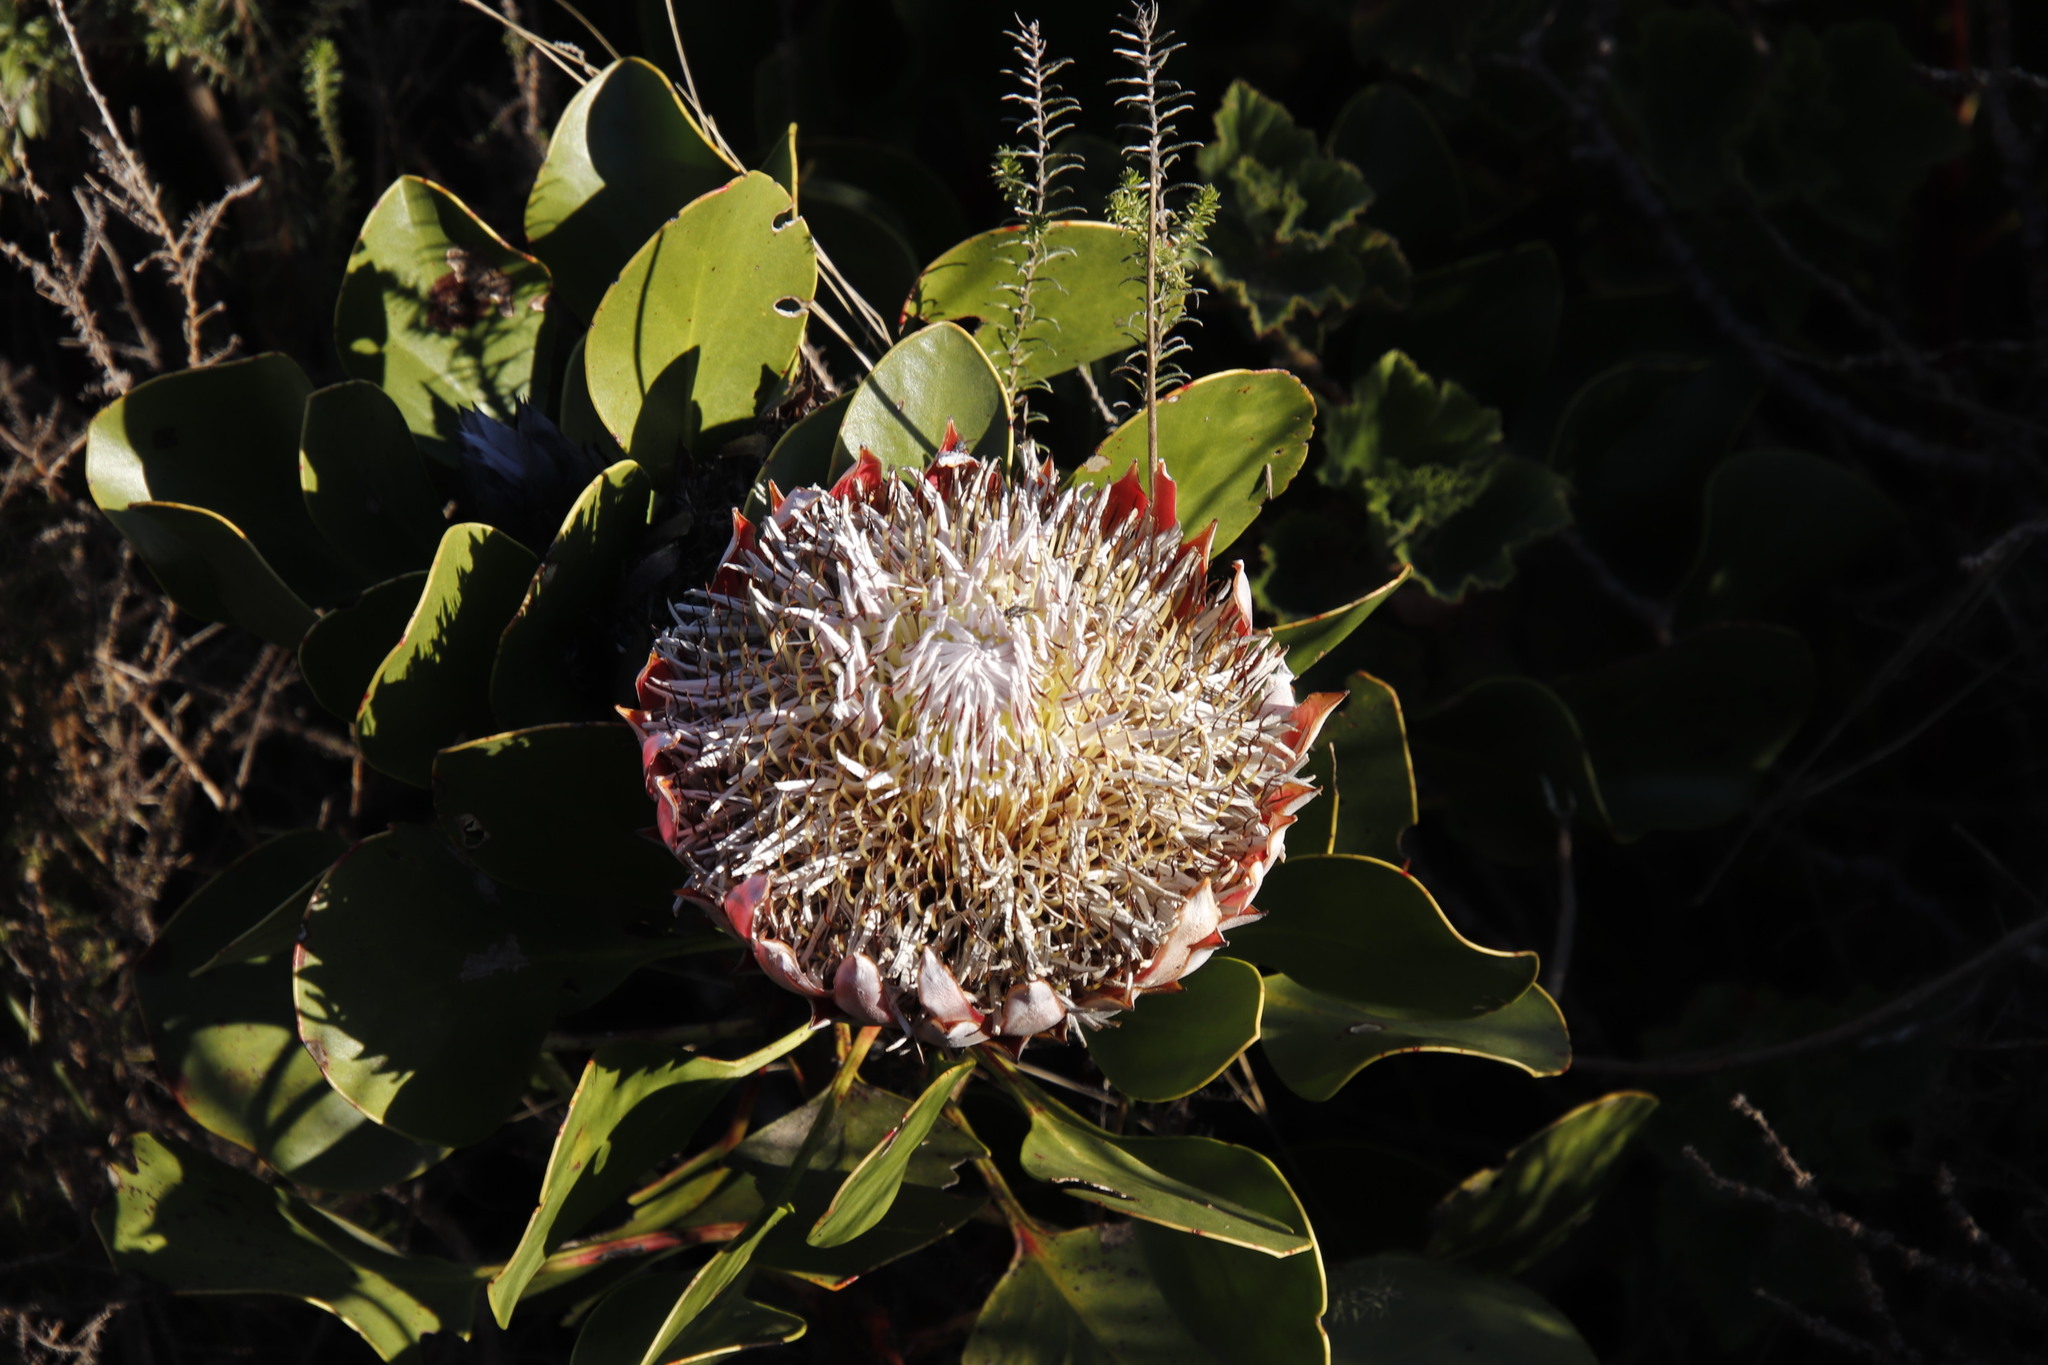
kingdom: Plantae
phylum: Tracheophyta
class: Magnoliopsida
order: Proteales
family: Proteaceae
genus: Protea
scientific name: Protea cynaroides
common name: King protea
